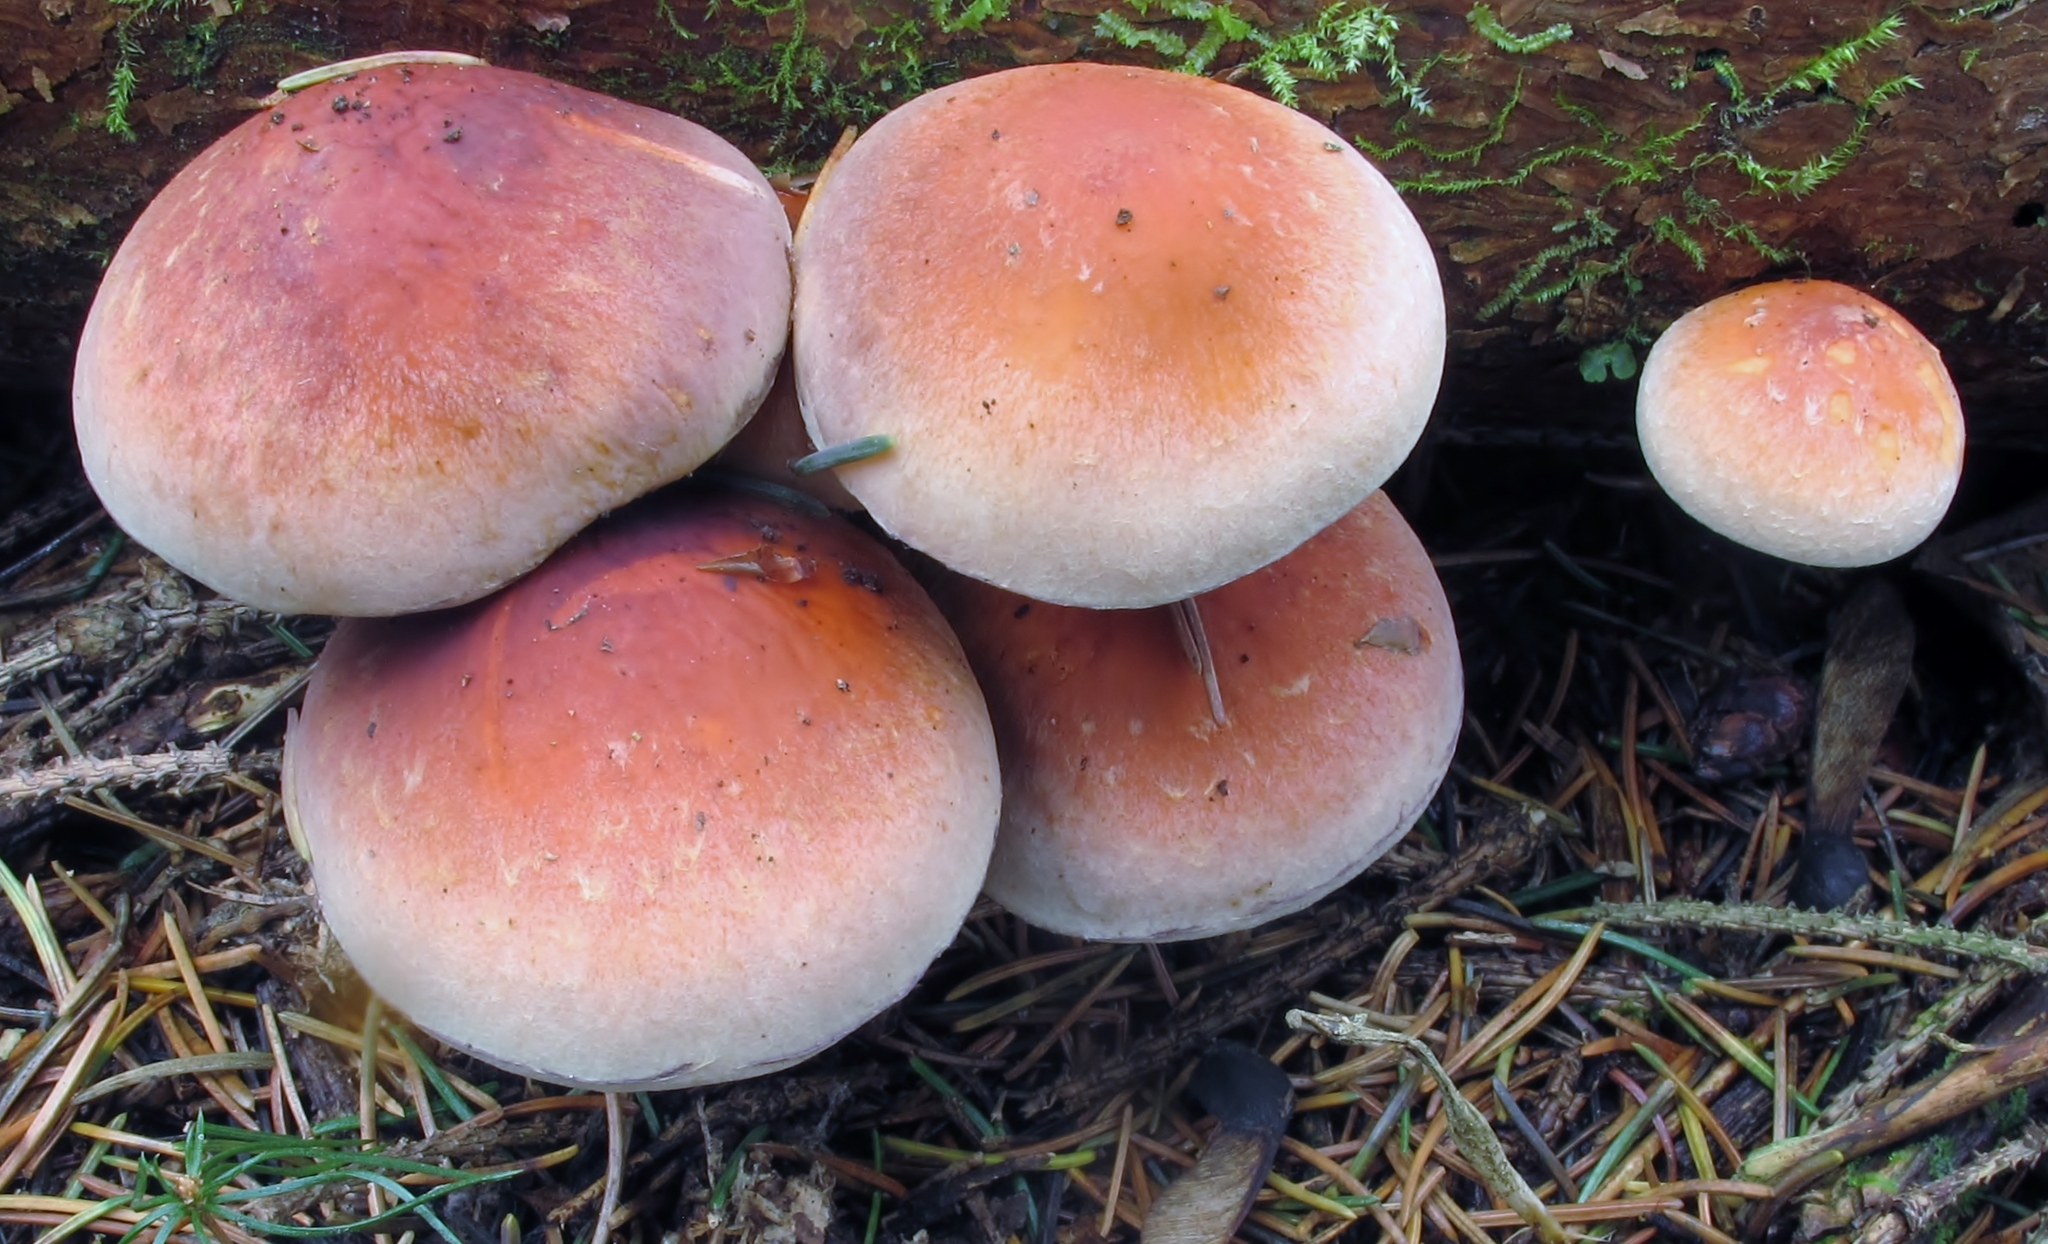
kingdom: Fungi
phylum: Basidiomycota
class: Agaricomycetes
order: Agaricales
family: Strophariaceae
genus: Hypholoma
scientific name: Hypholoma lateritium
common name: Brick caps
